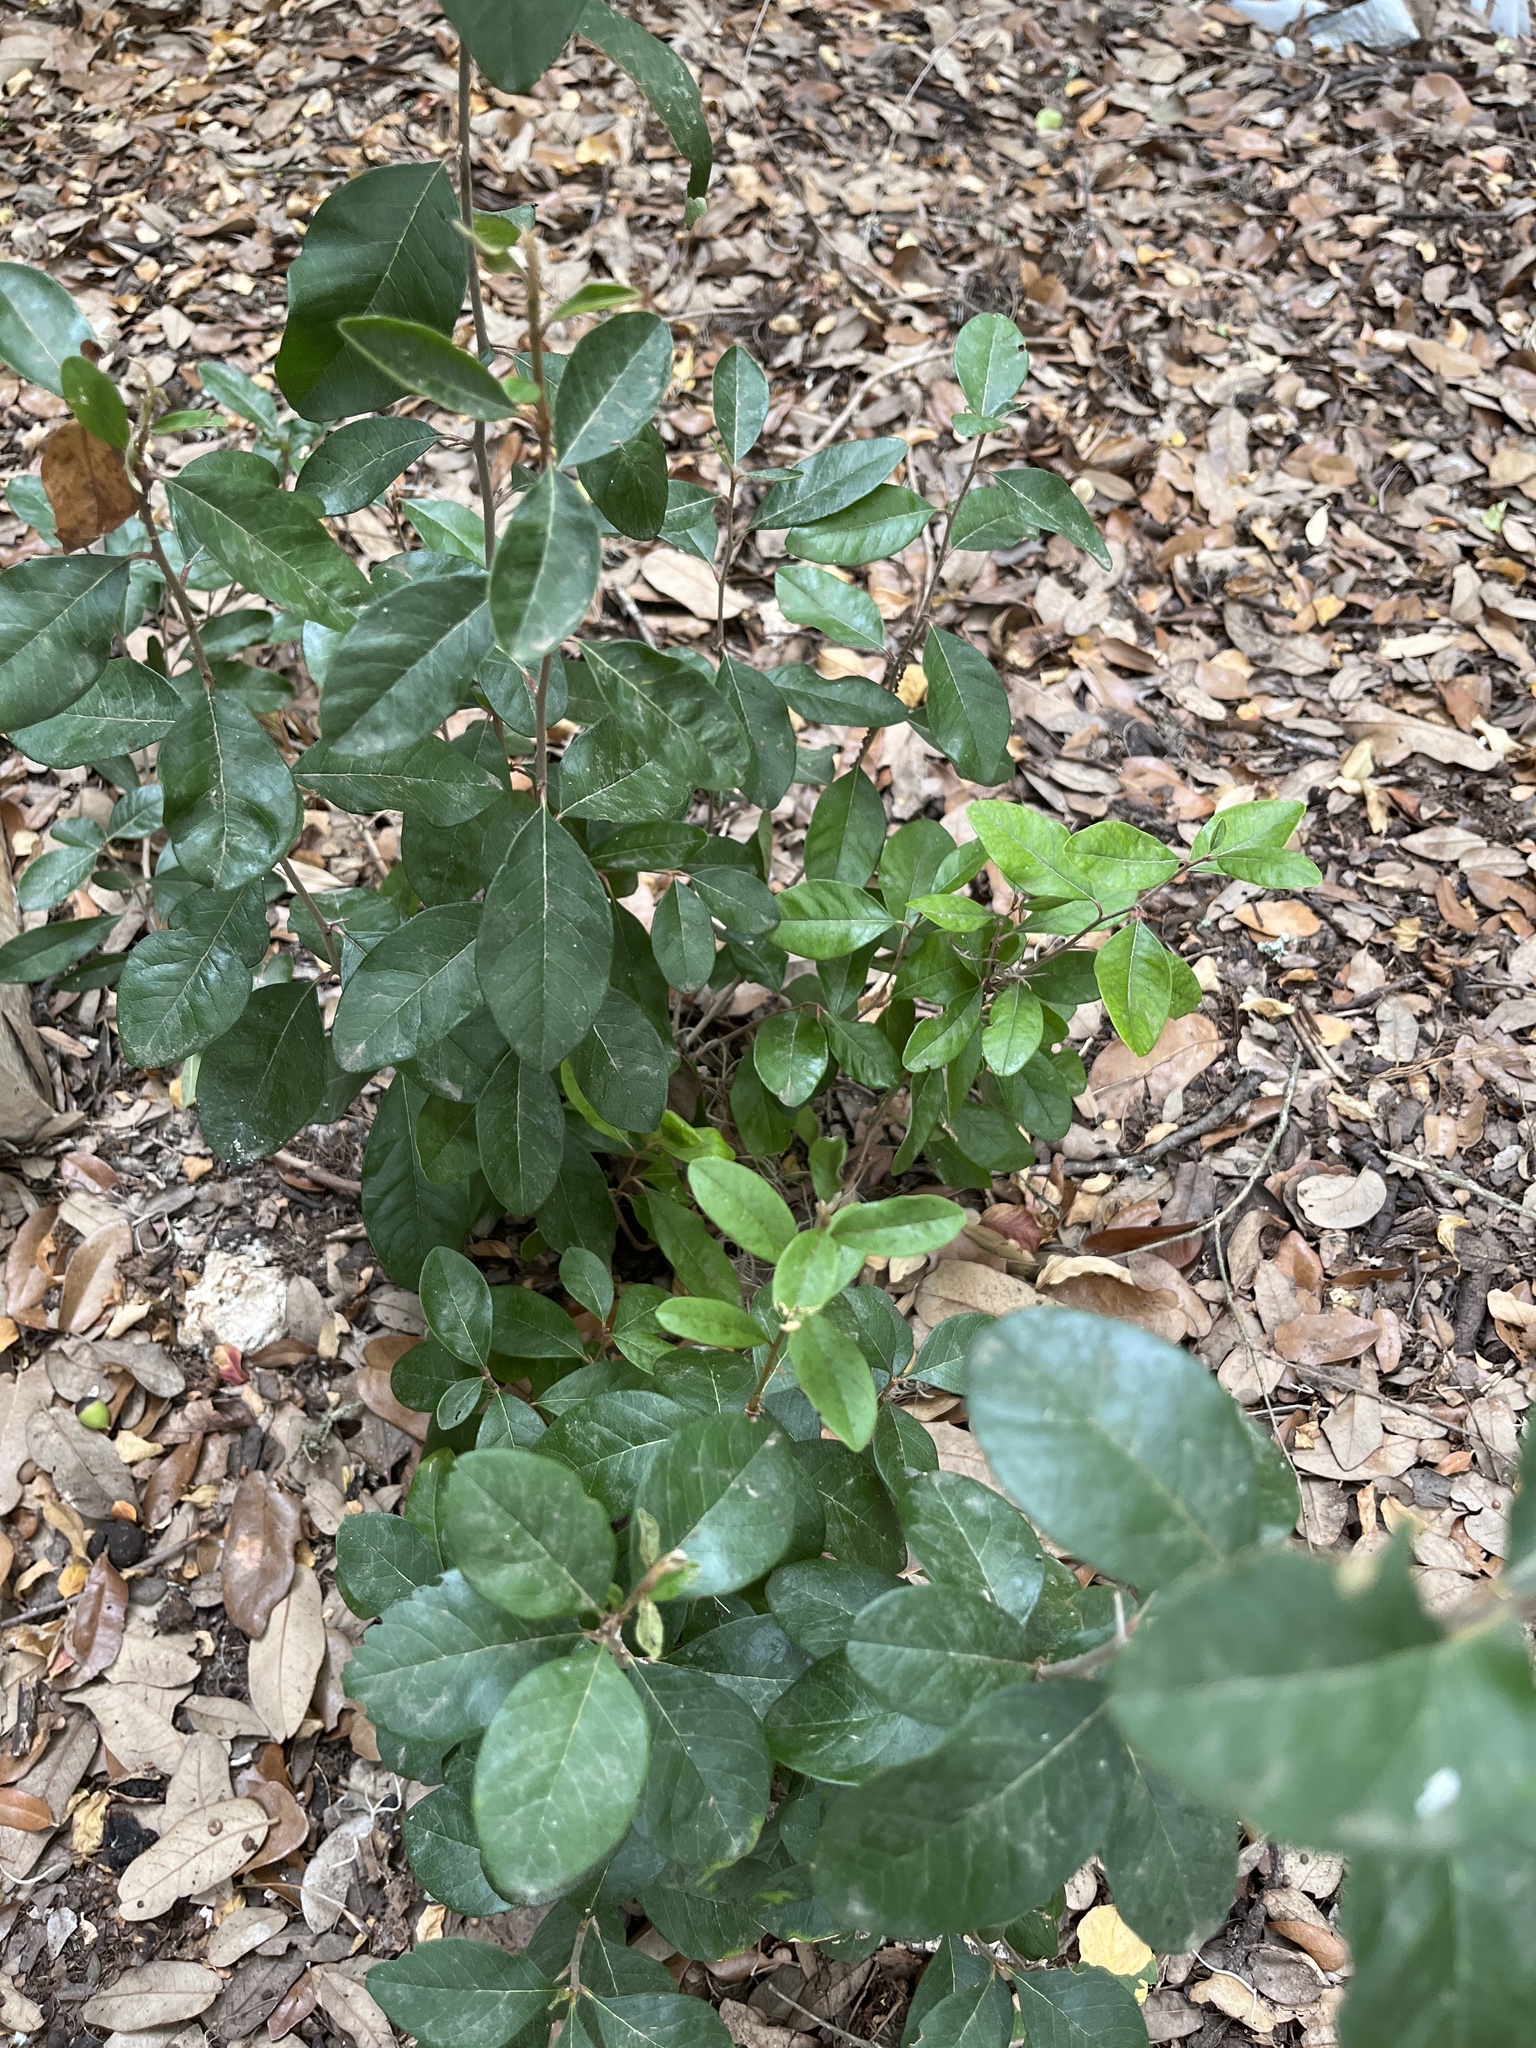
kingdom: Plantae
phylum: Tracheophyta
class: Magnoliopsida
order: Ericales
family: Sapotaceae
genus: Sideroxylon
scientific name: Sideroxylon lanuginosum
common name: Chittamwood
